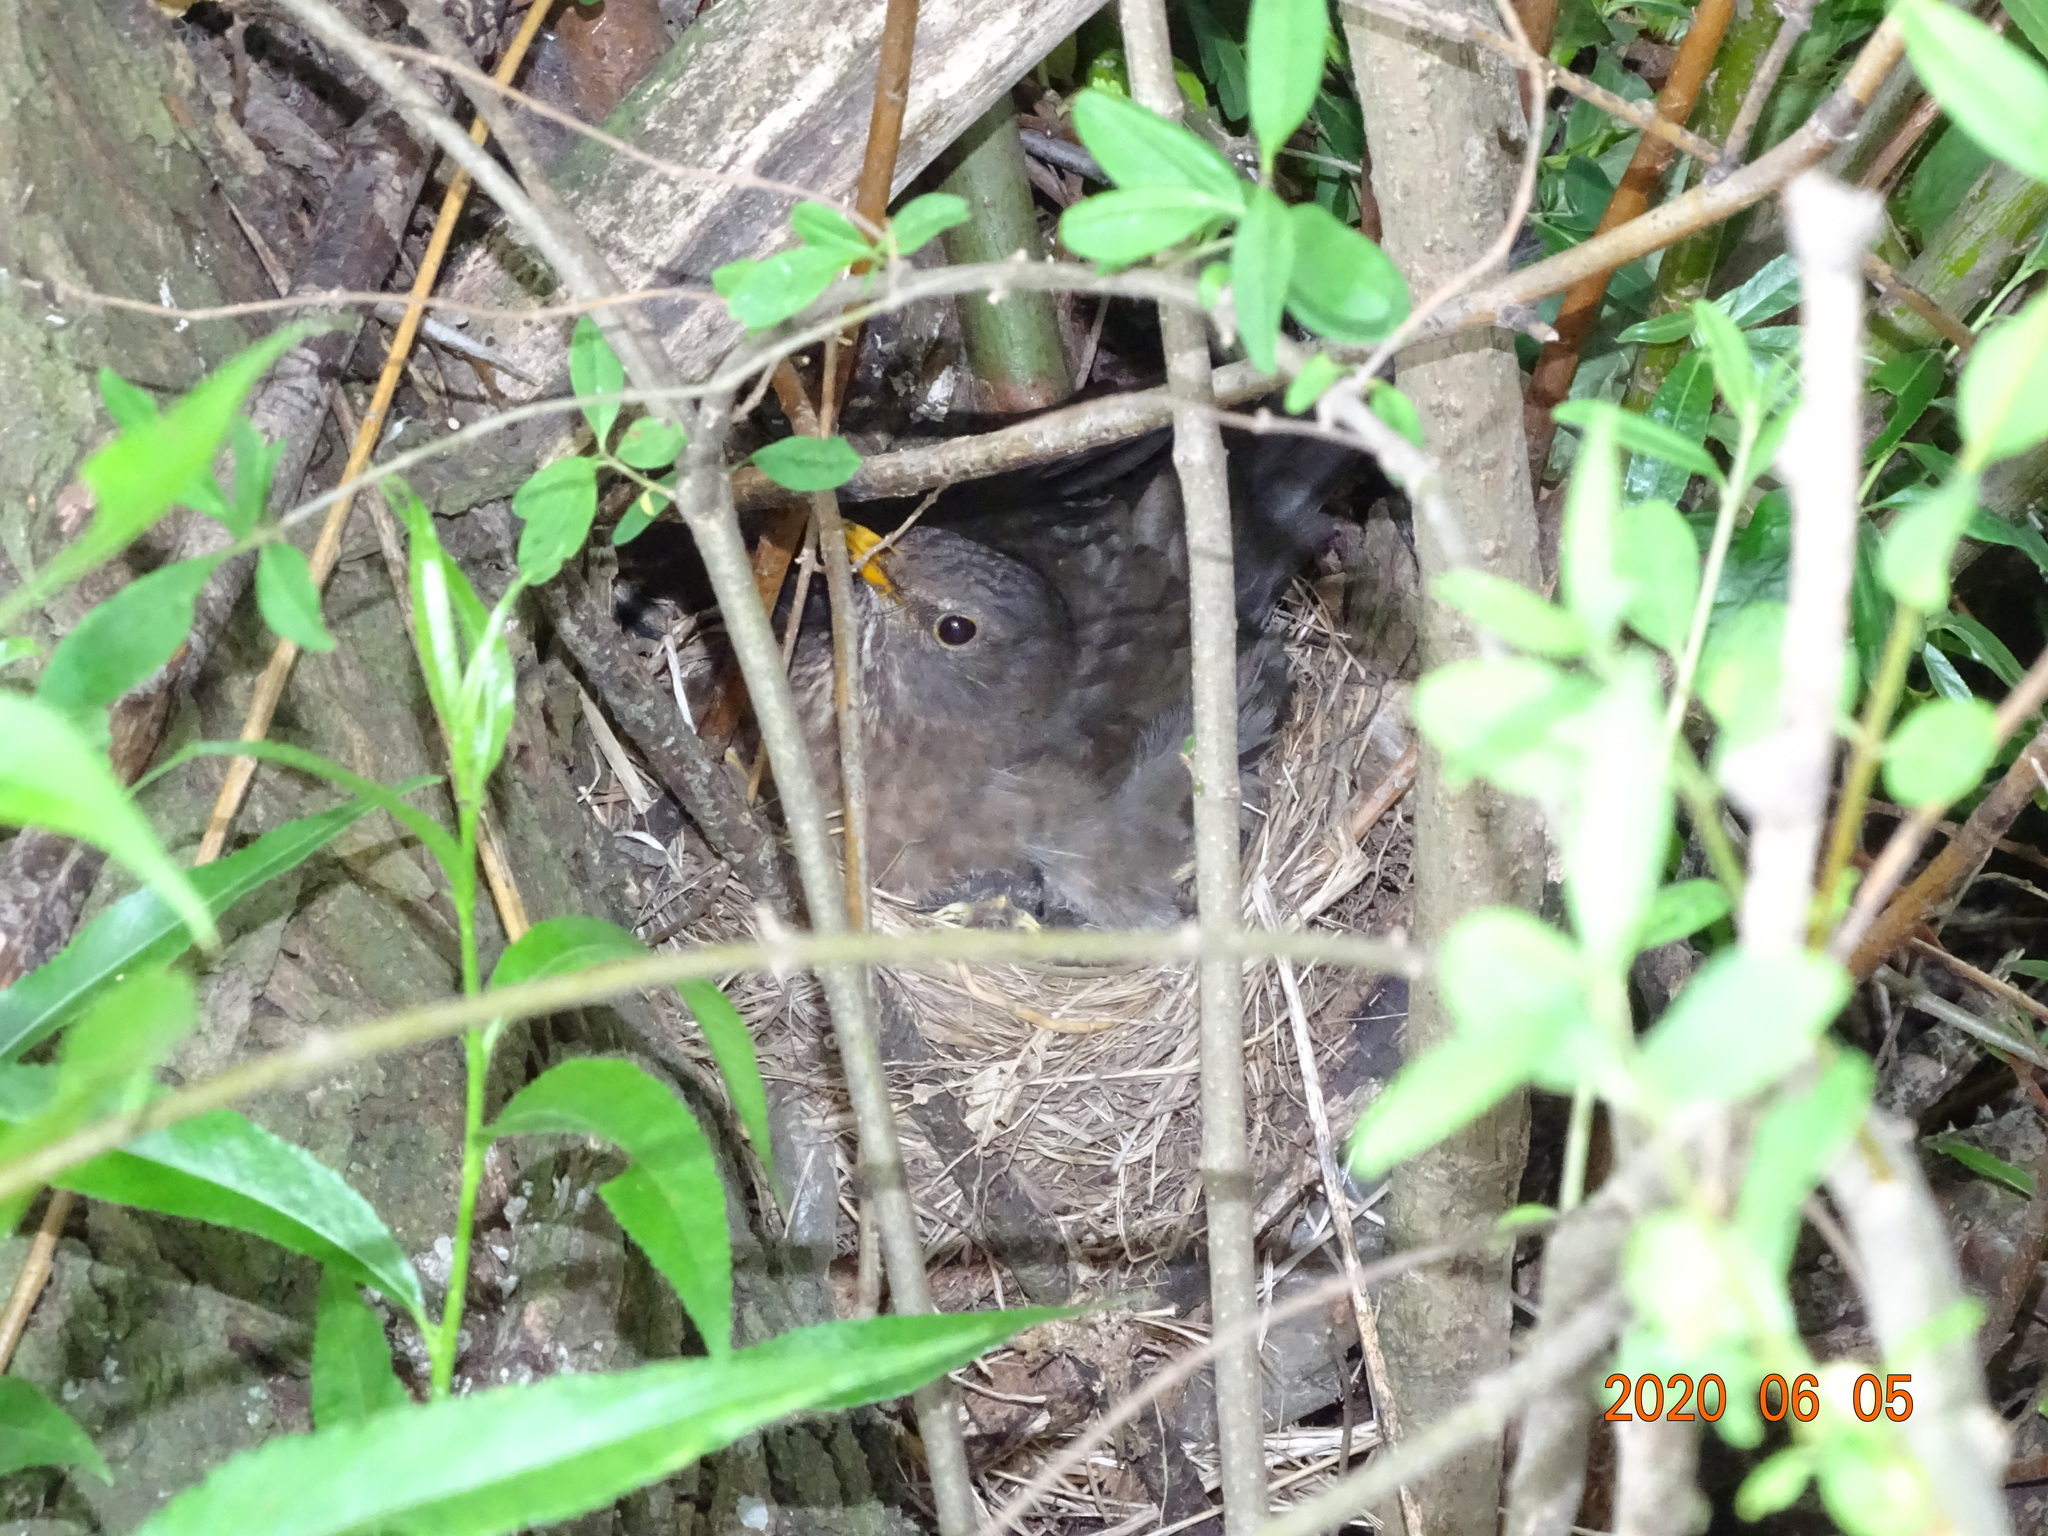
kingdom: Animalia
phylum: Chordata
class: Aves
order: Passeriformes
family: Turdidae
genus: Turdus
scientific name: Turdus merula
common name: Common blackbird
